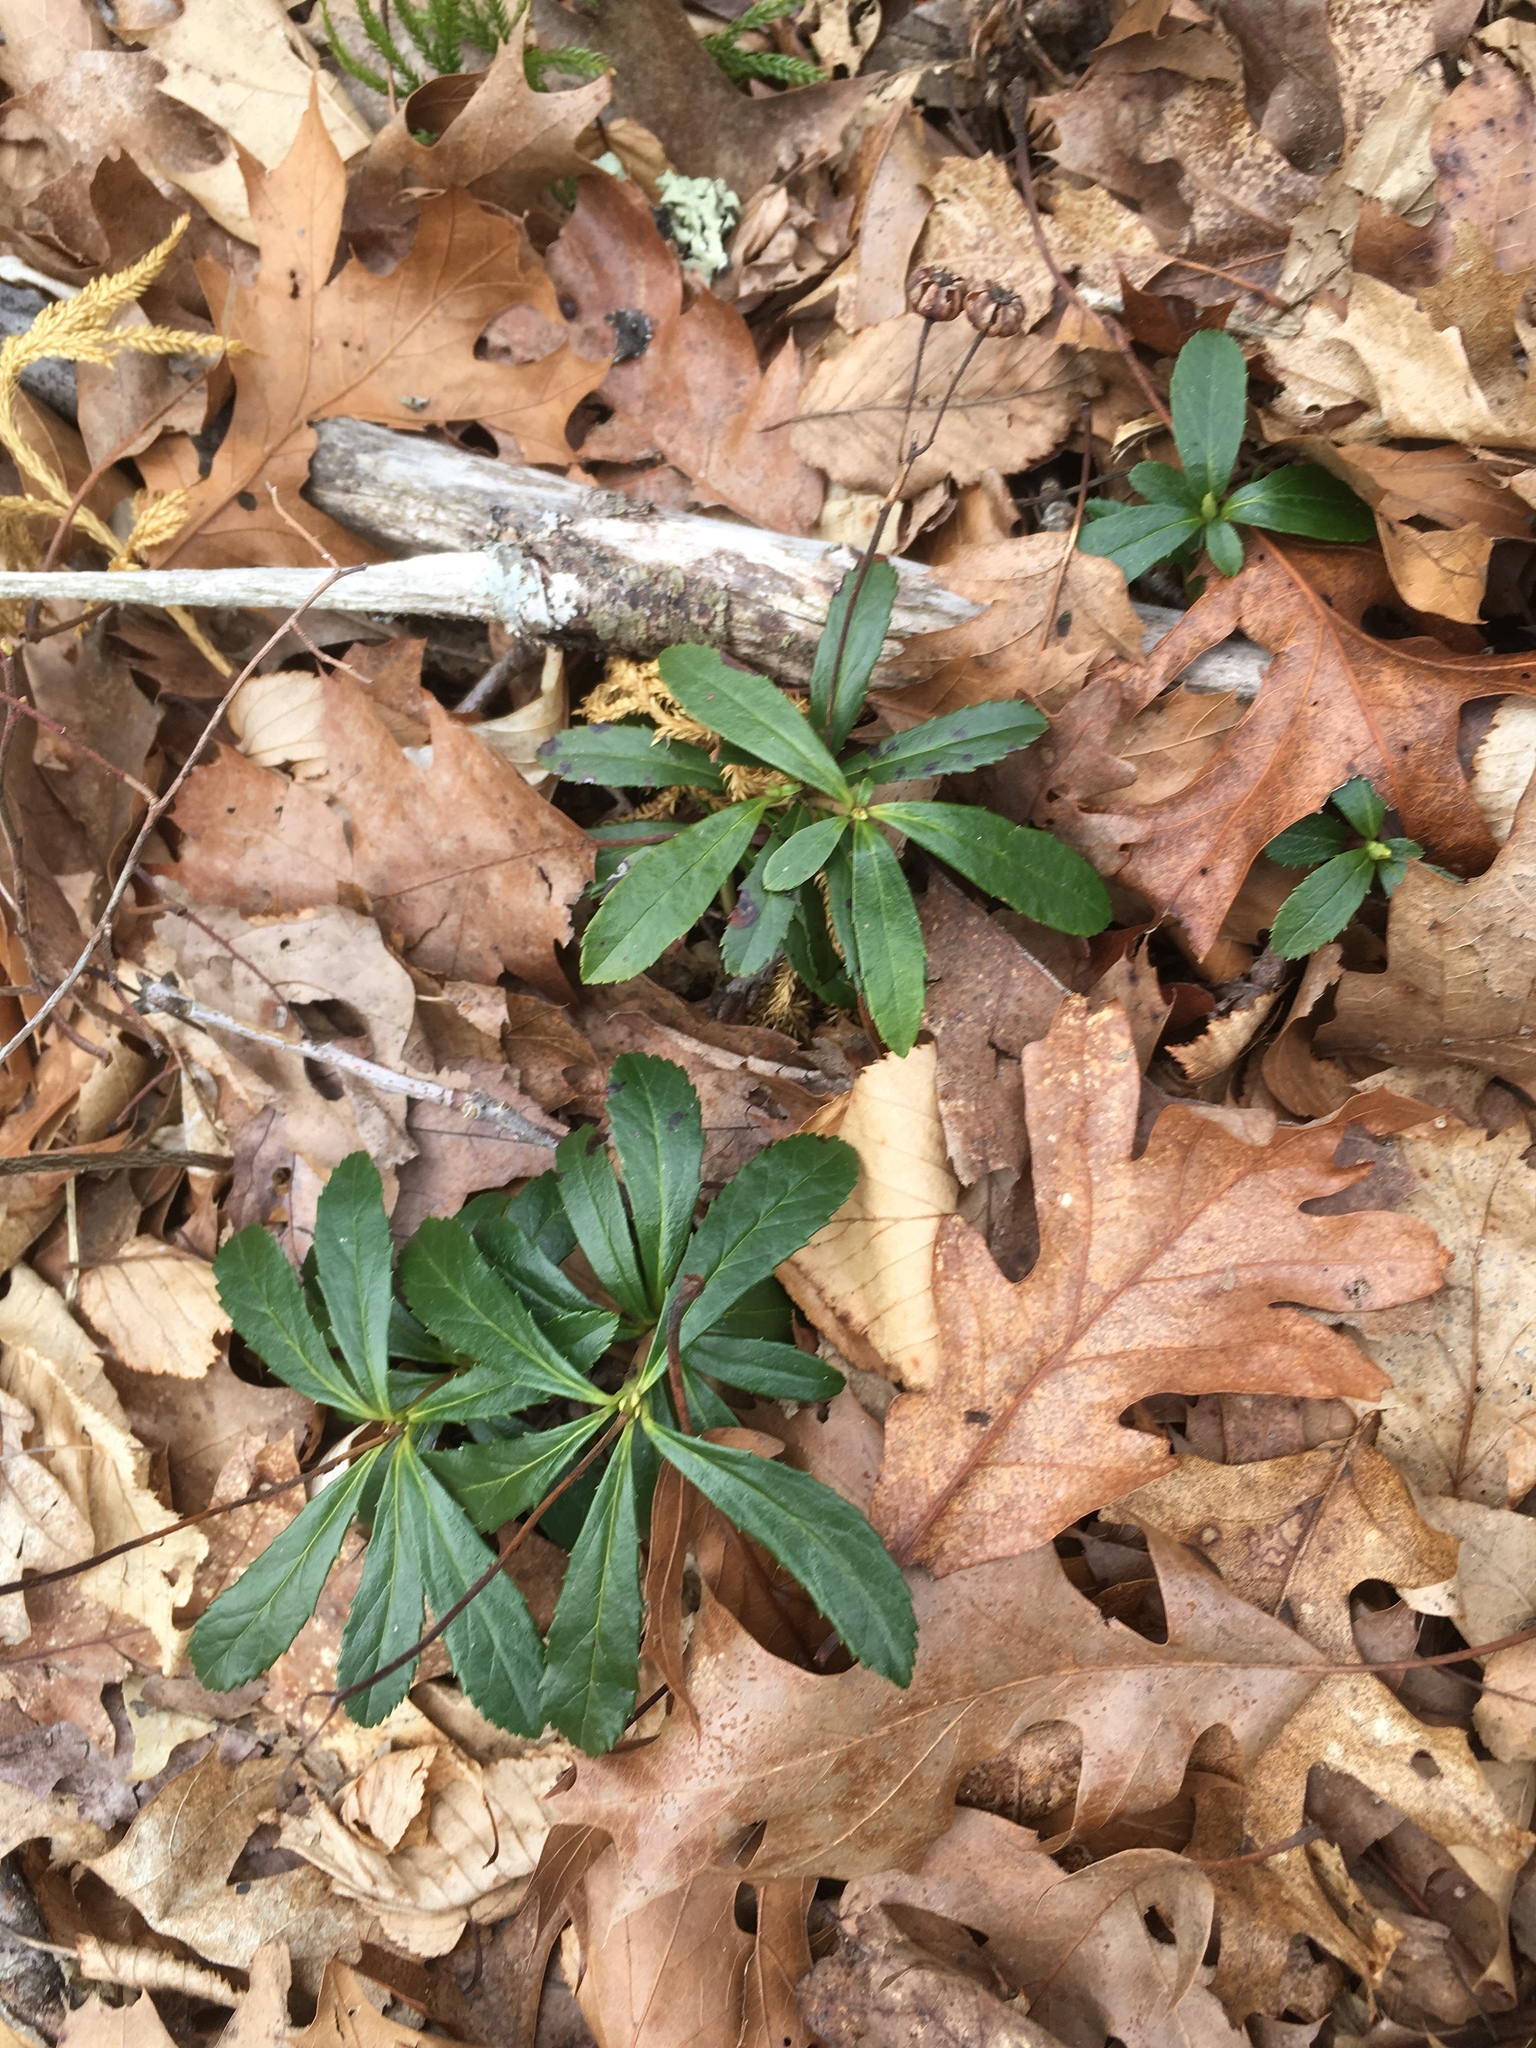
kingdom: Plantae
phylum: Tracheophyta
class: Magnoliopsida
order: Ericales
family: Ericaceae
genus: Chimaphila
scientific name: Chimaphila umbellata
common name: Pipsissewa
